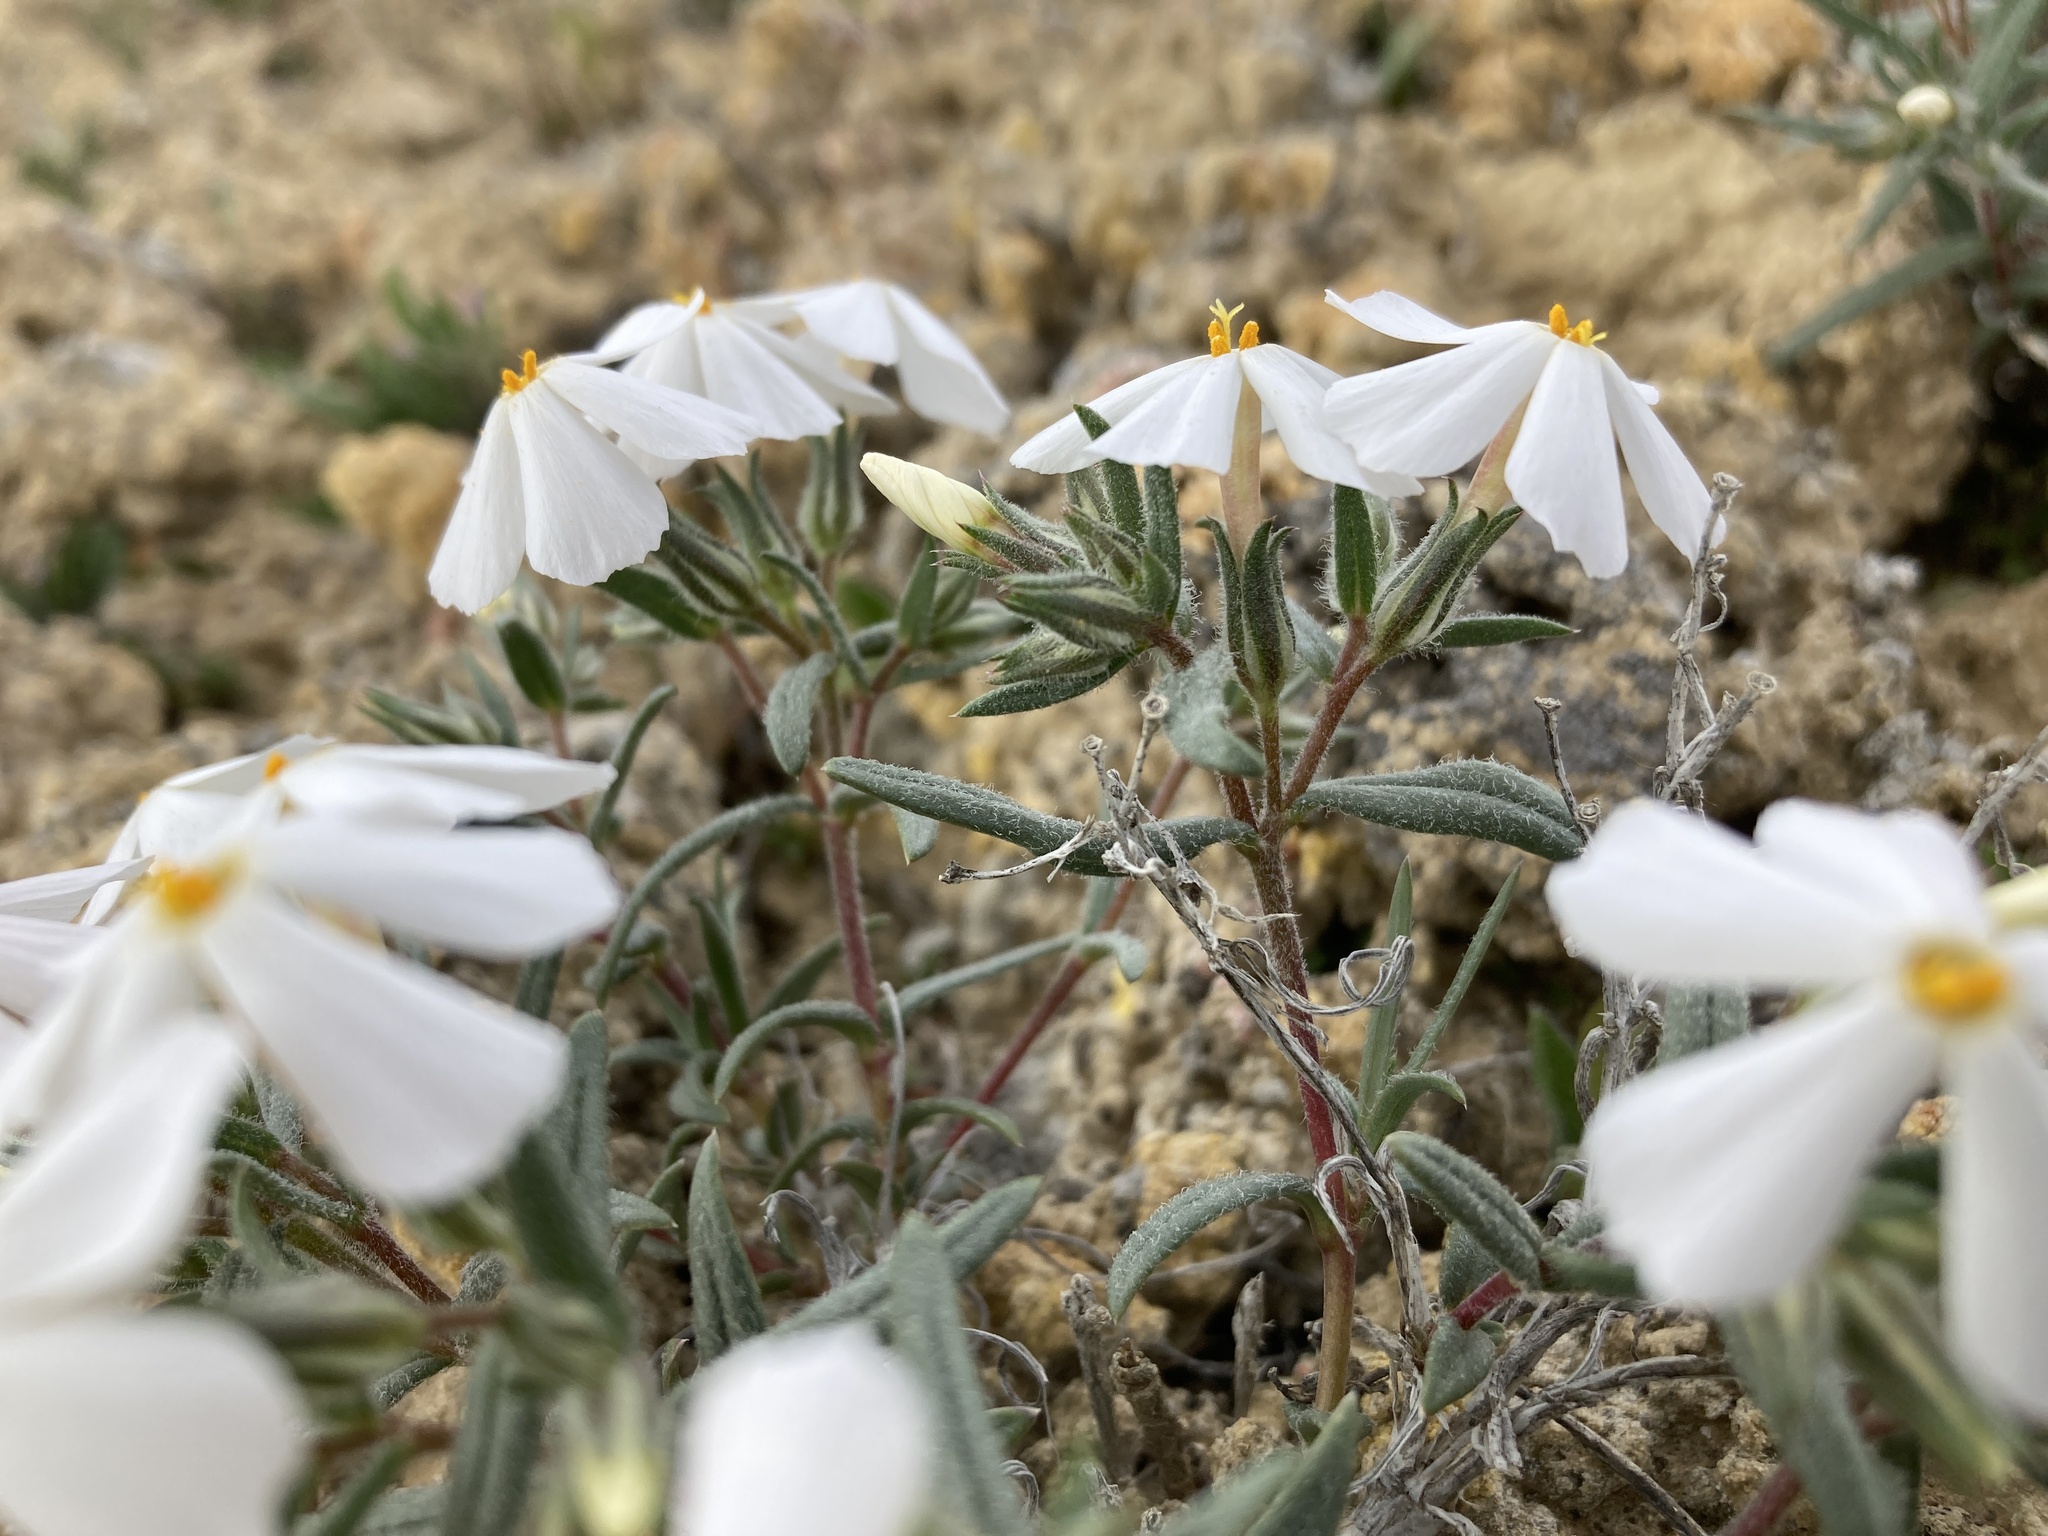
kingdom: Plantae
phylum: Tracheophyta
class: Magnoliopsida
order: Ericales
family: Polemoniaceae
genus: Phlox
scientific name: Phlox longifolia
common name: Longleaf phlox
